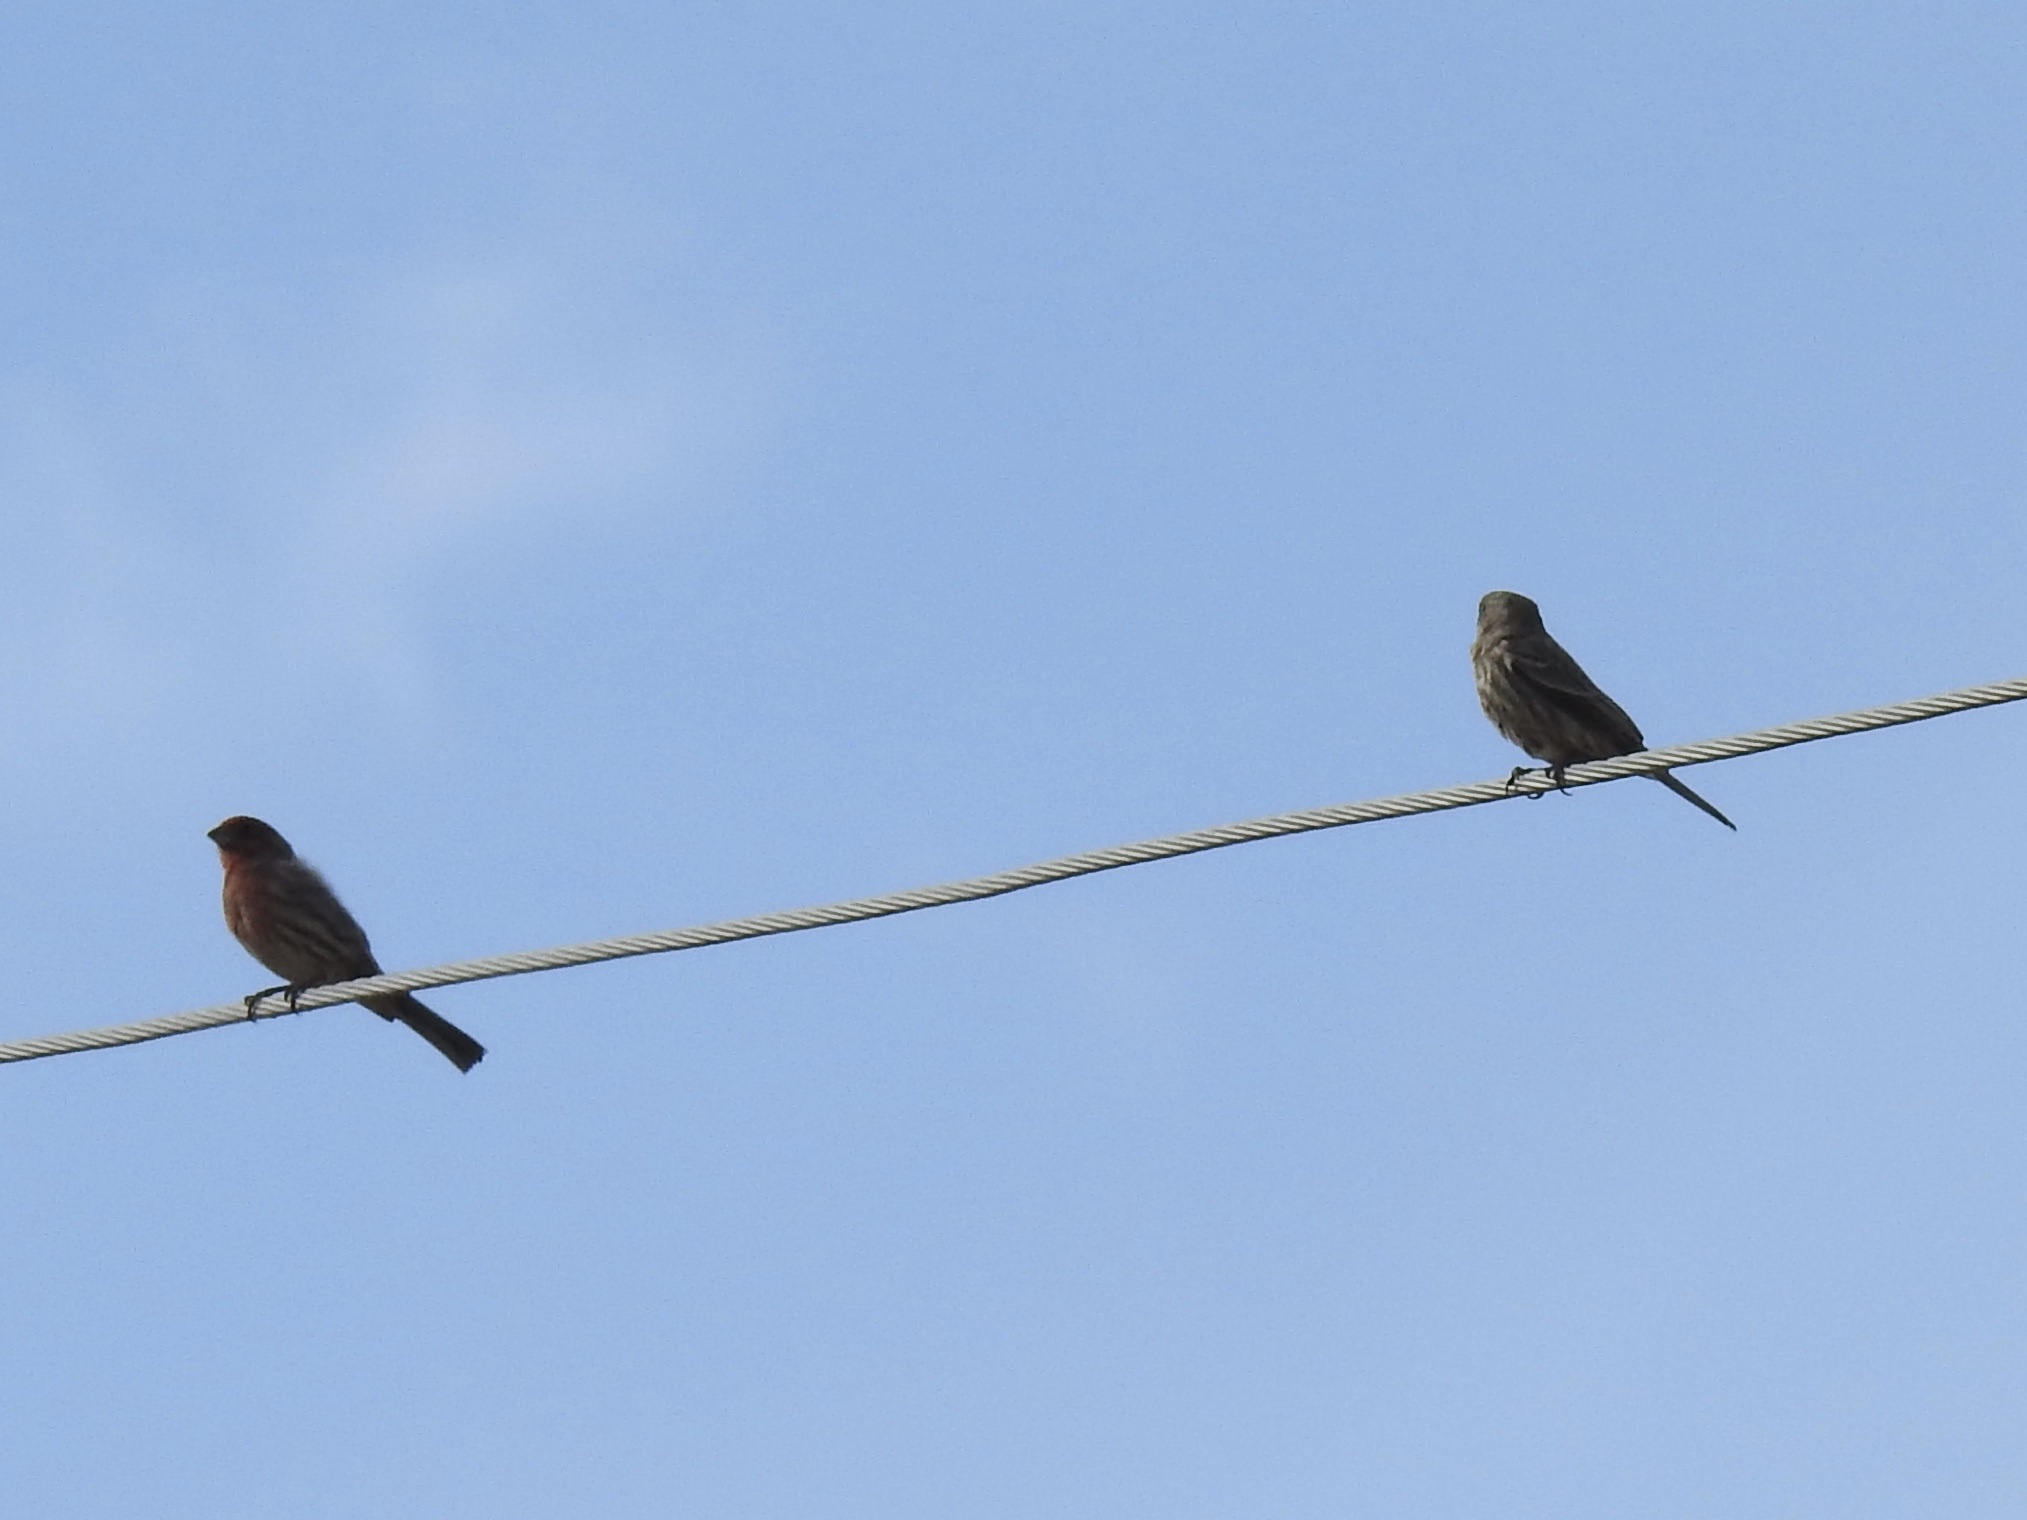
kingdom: Animalia
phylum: Chordata
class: Aves
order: Passeriformes
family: Fringillidae
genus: Haemorhous
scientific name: Haemorhous mexicanus
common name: House finch
